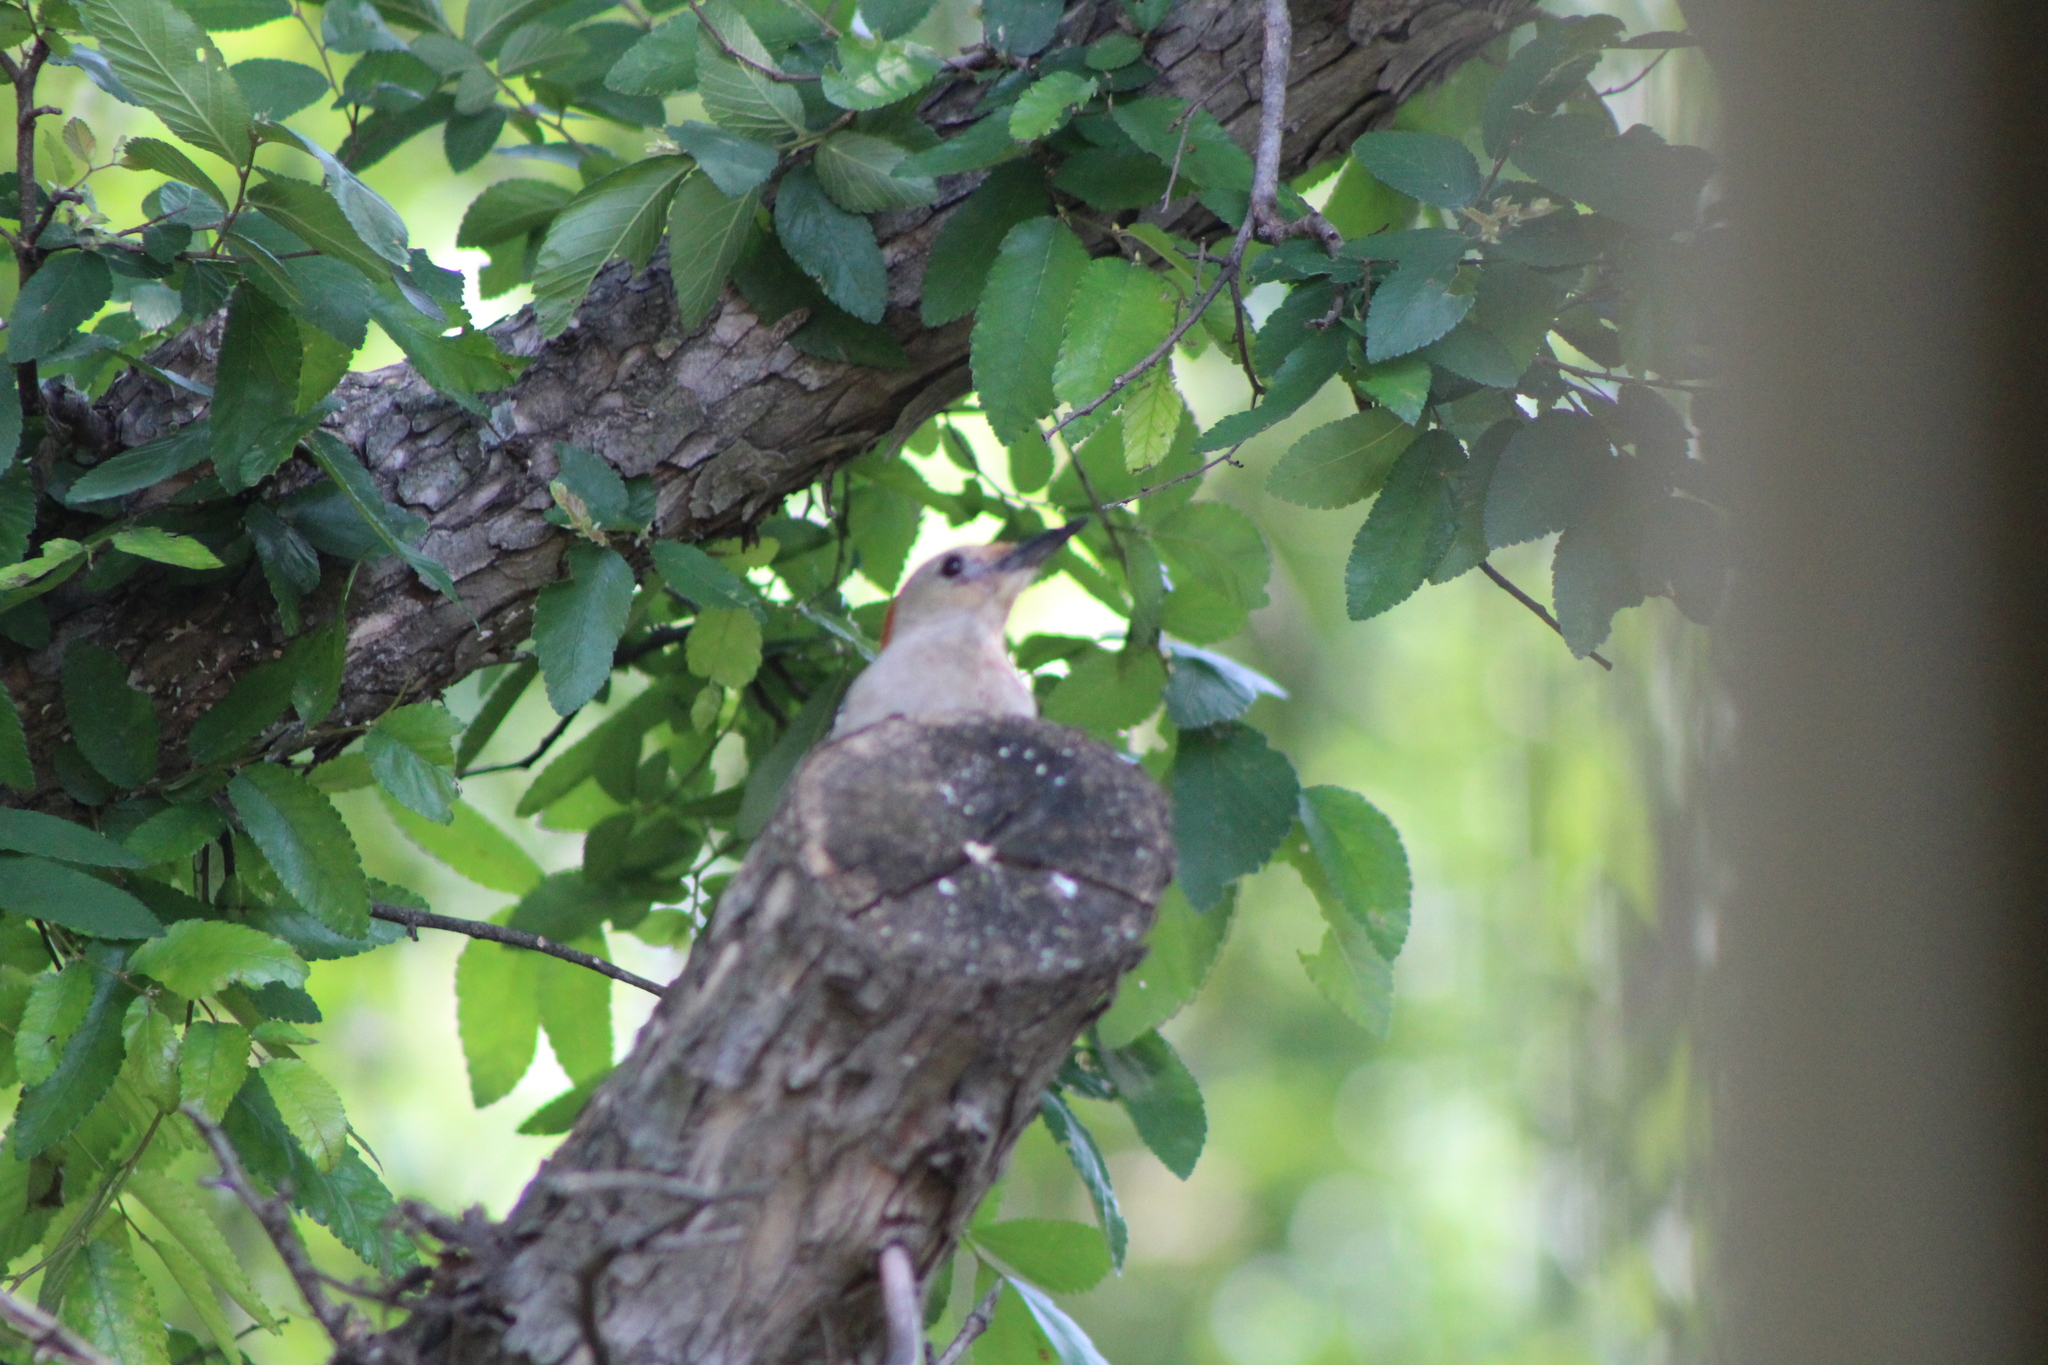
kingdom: Animalia
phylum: Chordata
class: Aves
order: Piciformes
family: Picidae
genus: Melanerpes
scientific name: Melanerpes carolinus
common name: Red-bellied woodpecker
